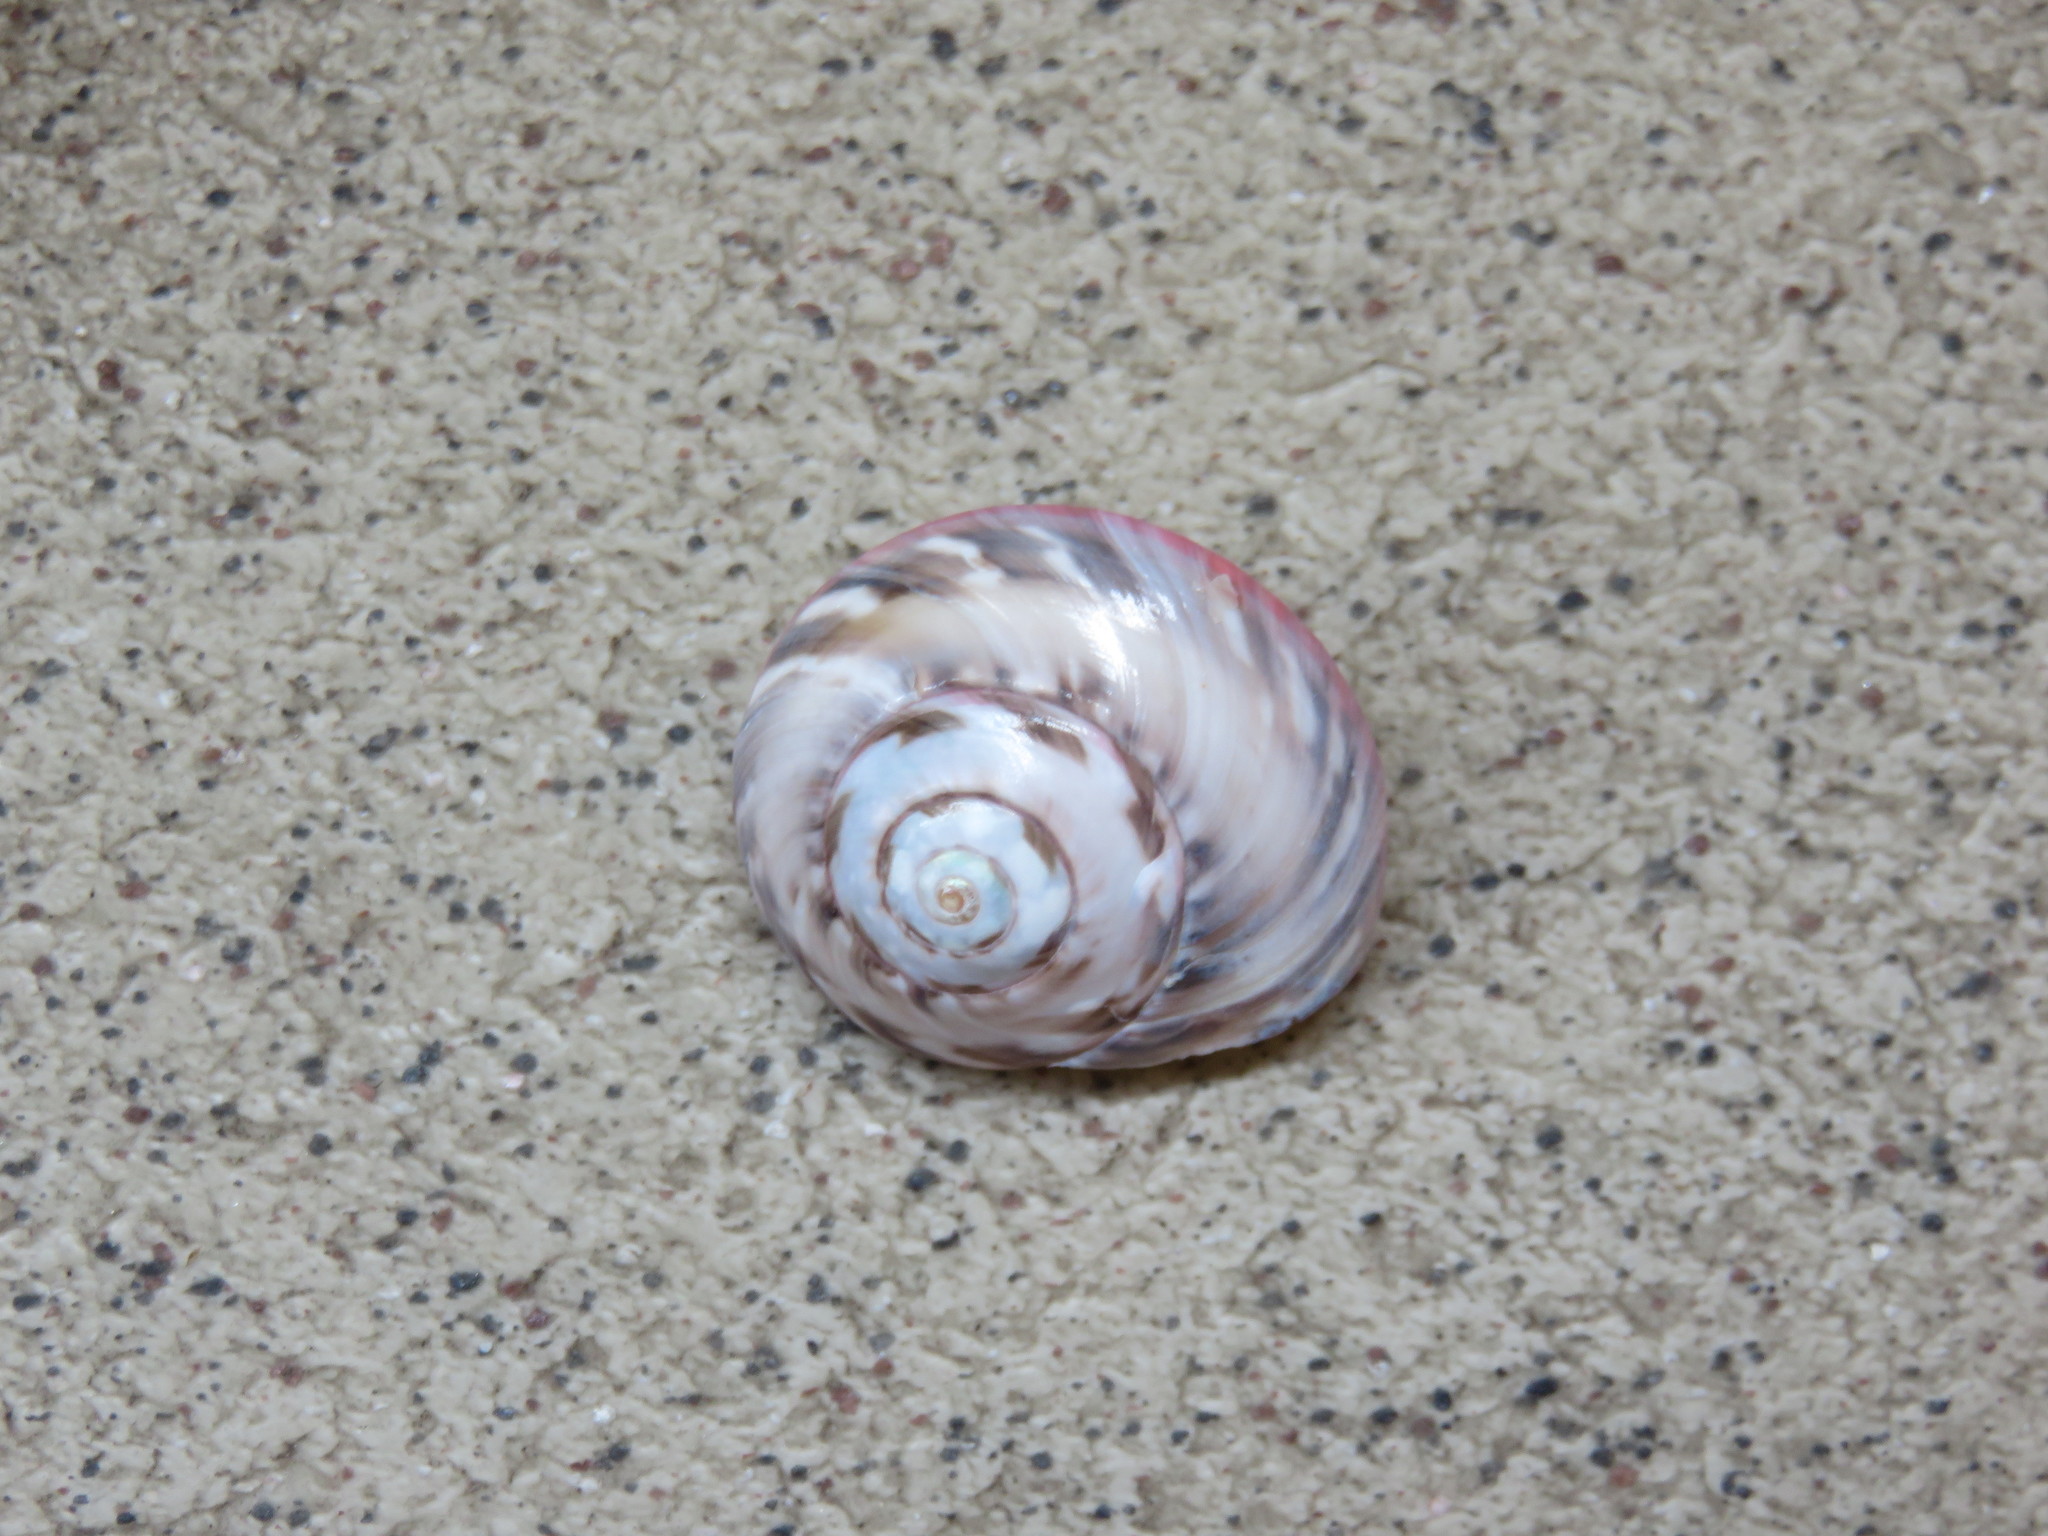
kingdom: Animalia
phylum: Mollusca
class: Gastropoda
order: Trochida
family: Trochidae
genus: Umbonium
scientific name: Umbonium giganteum
